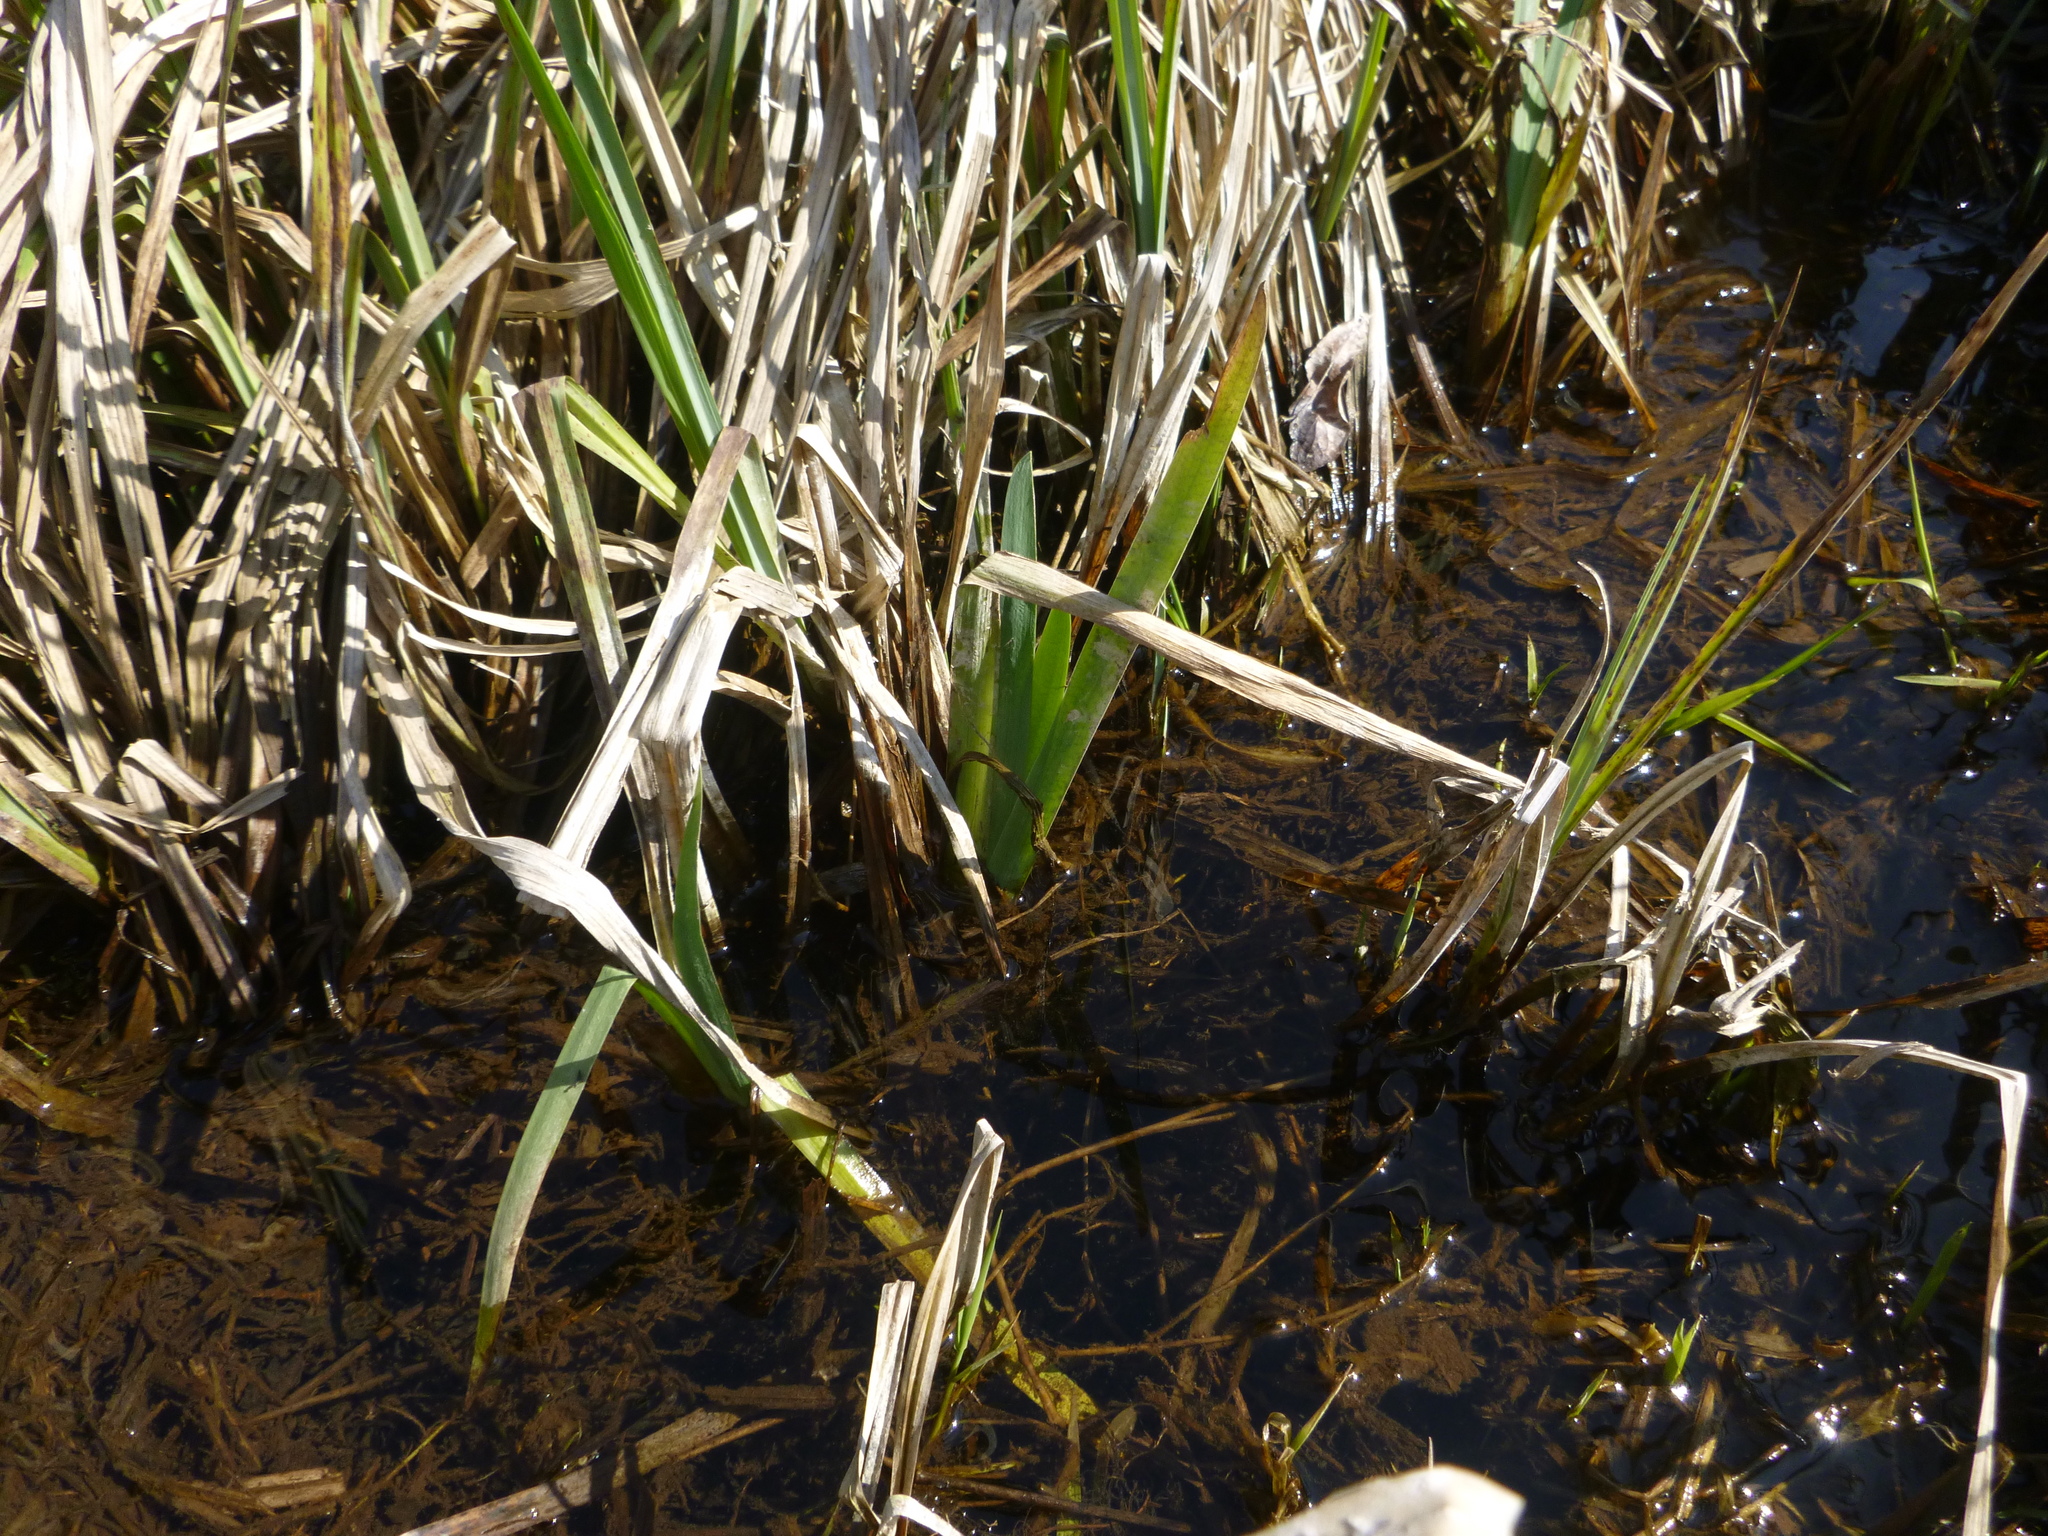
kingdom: Plantae
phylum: Tracheophyta
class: Liliopsida
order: Asparagales
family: Iridaceae
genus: Iris
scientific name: Iris pseudacorus
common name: Yellow flag
